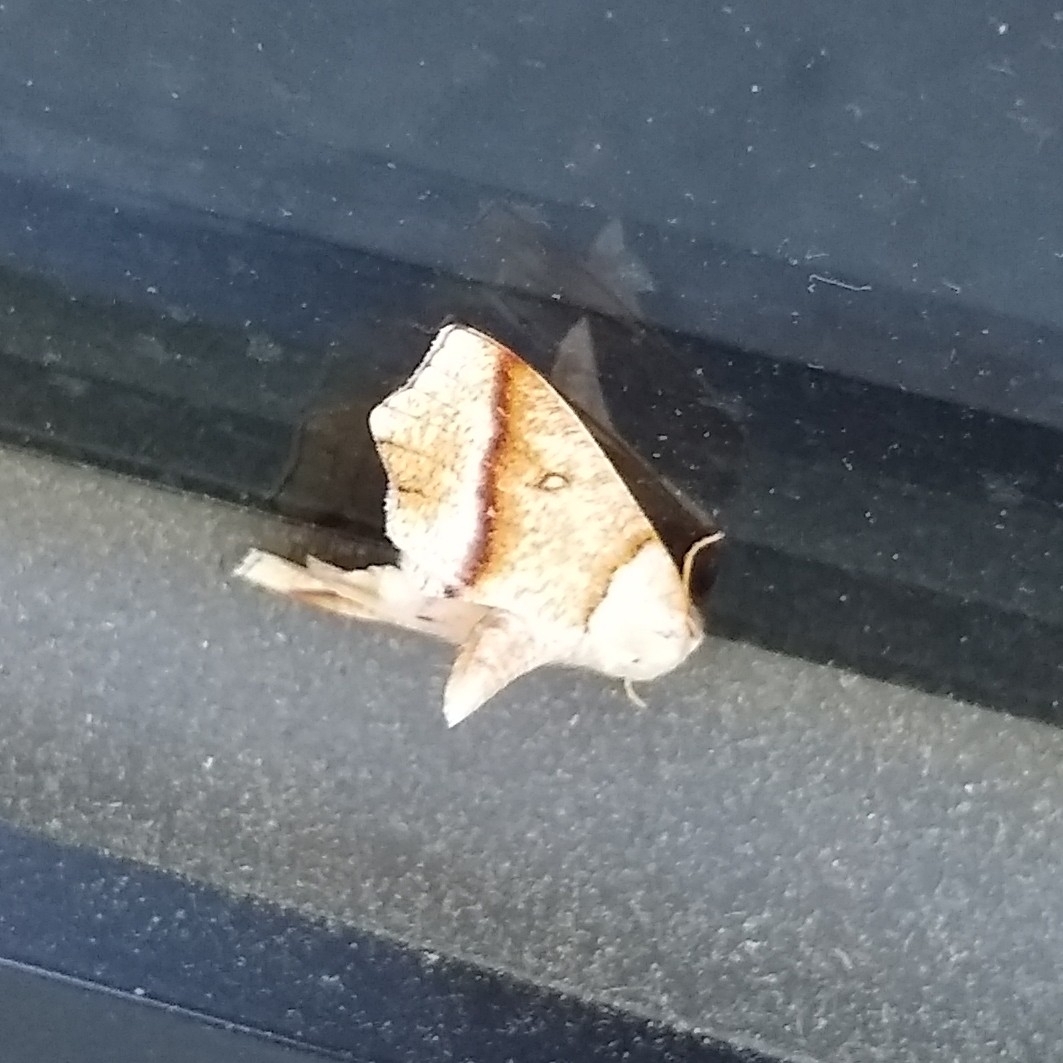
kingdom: Animalia
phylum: Arthropoda
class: Insecta
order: Lepidoptera
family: Geometridae
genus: Plagodis
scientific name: Plagodis alcoolaria
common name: Hollow-spotted plagodis
